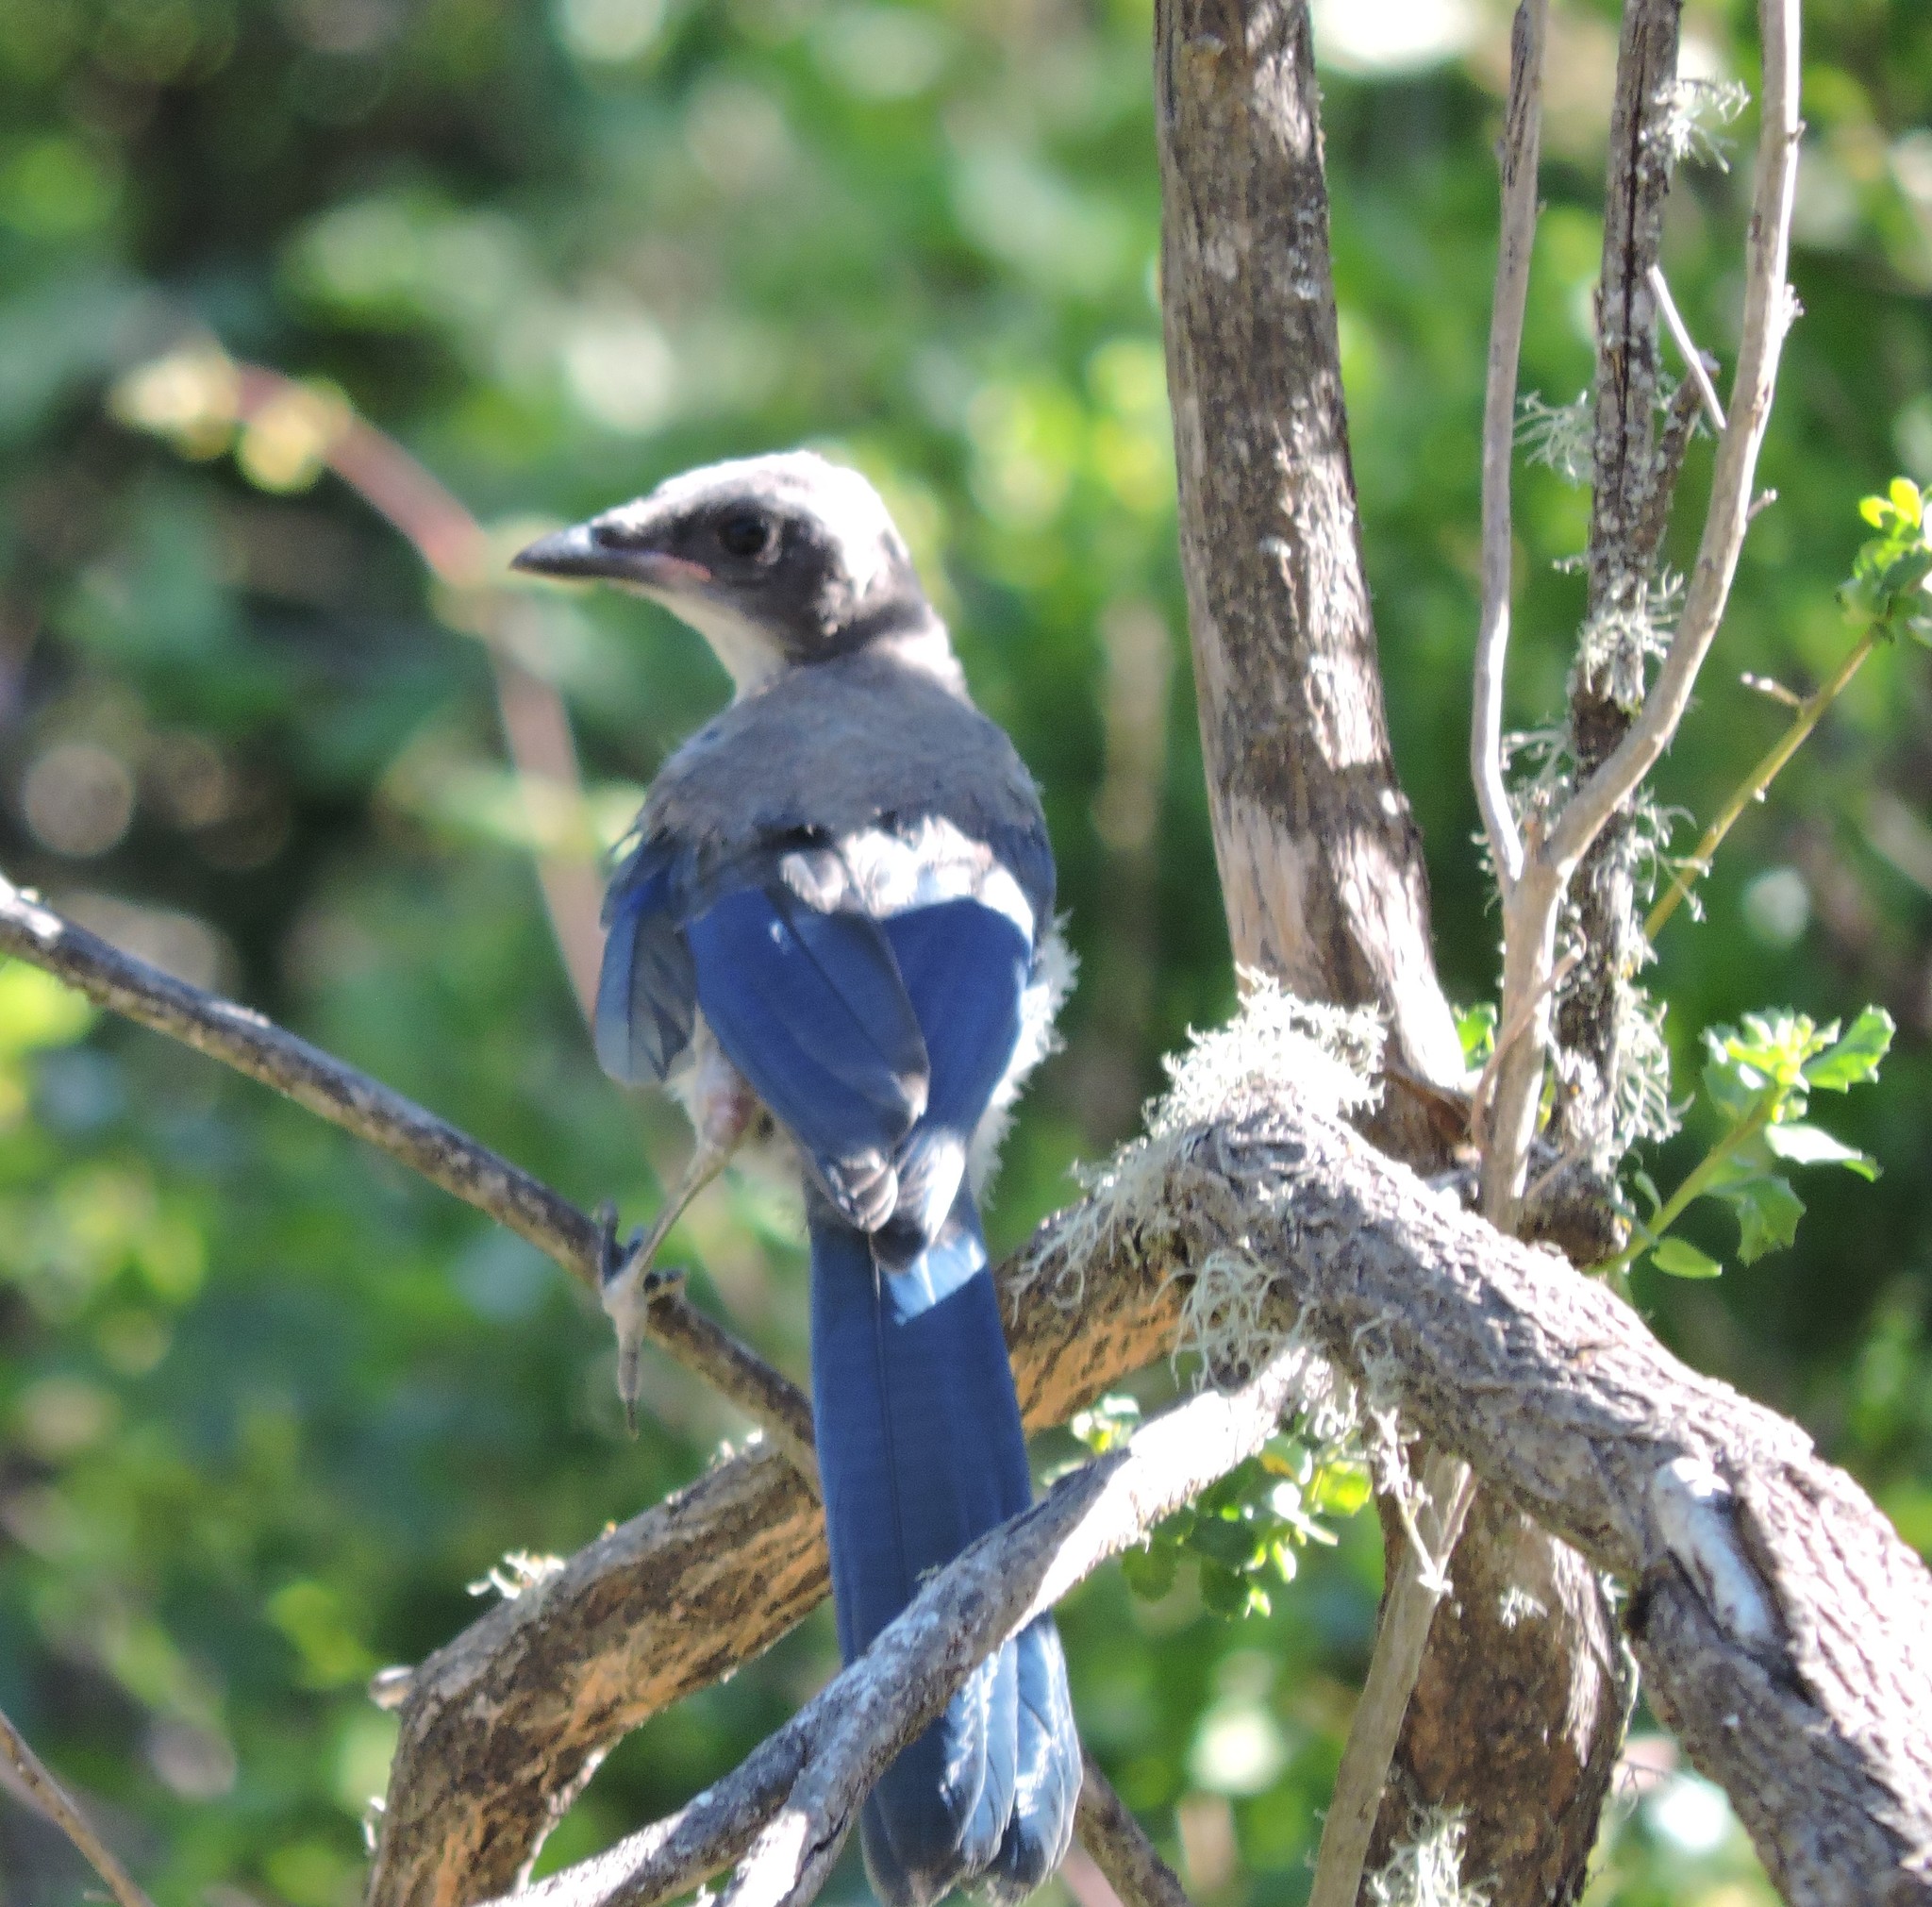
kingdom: Animalia
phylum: Chordata
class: Aves
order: Passeriformes
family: Corvidae
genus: Aphelocoma
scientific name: Aphelocoma californica
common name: California scrub-jay
